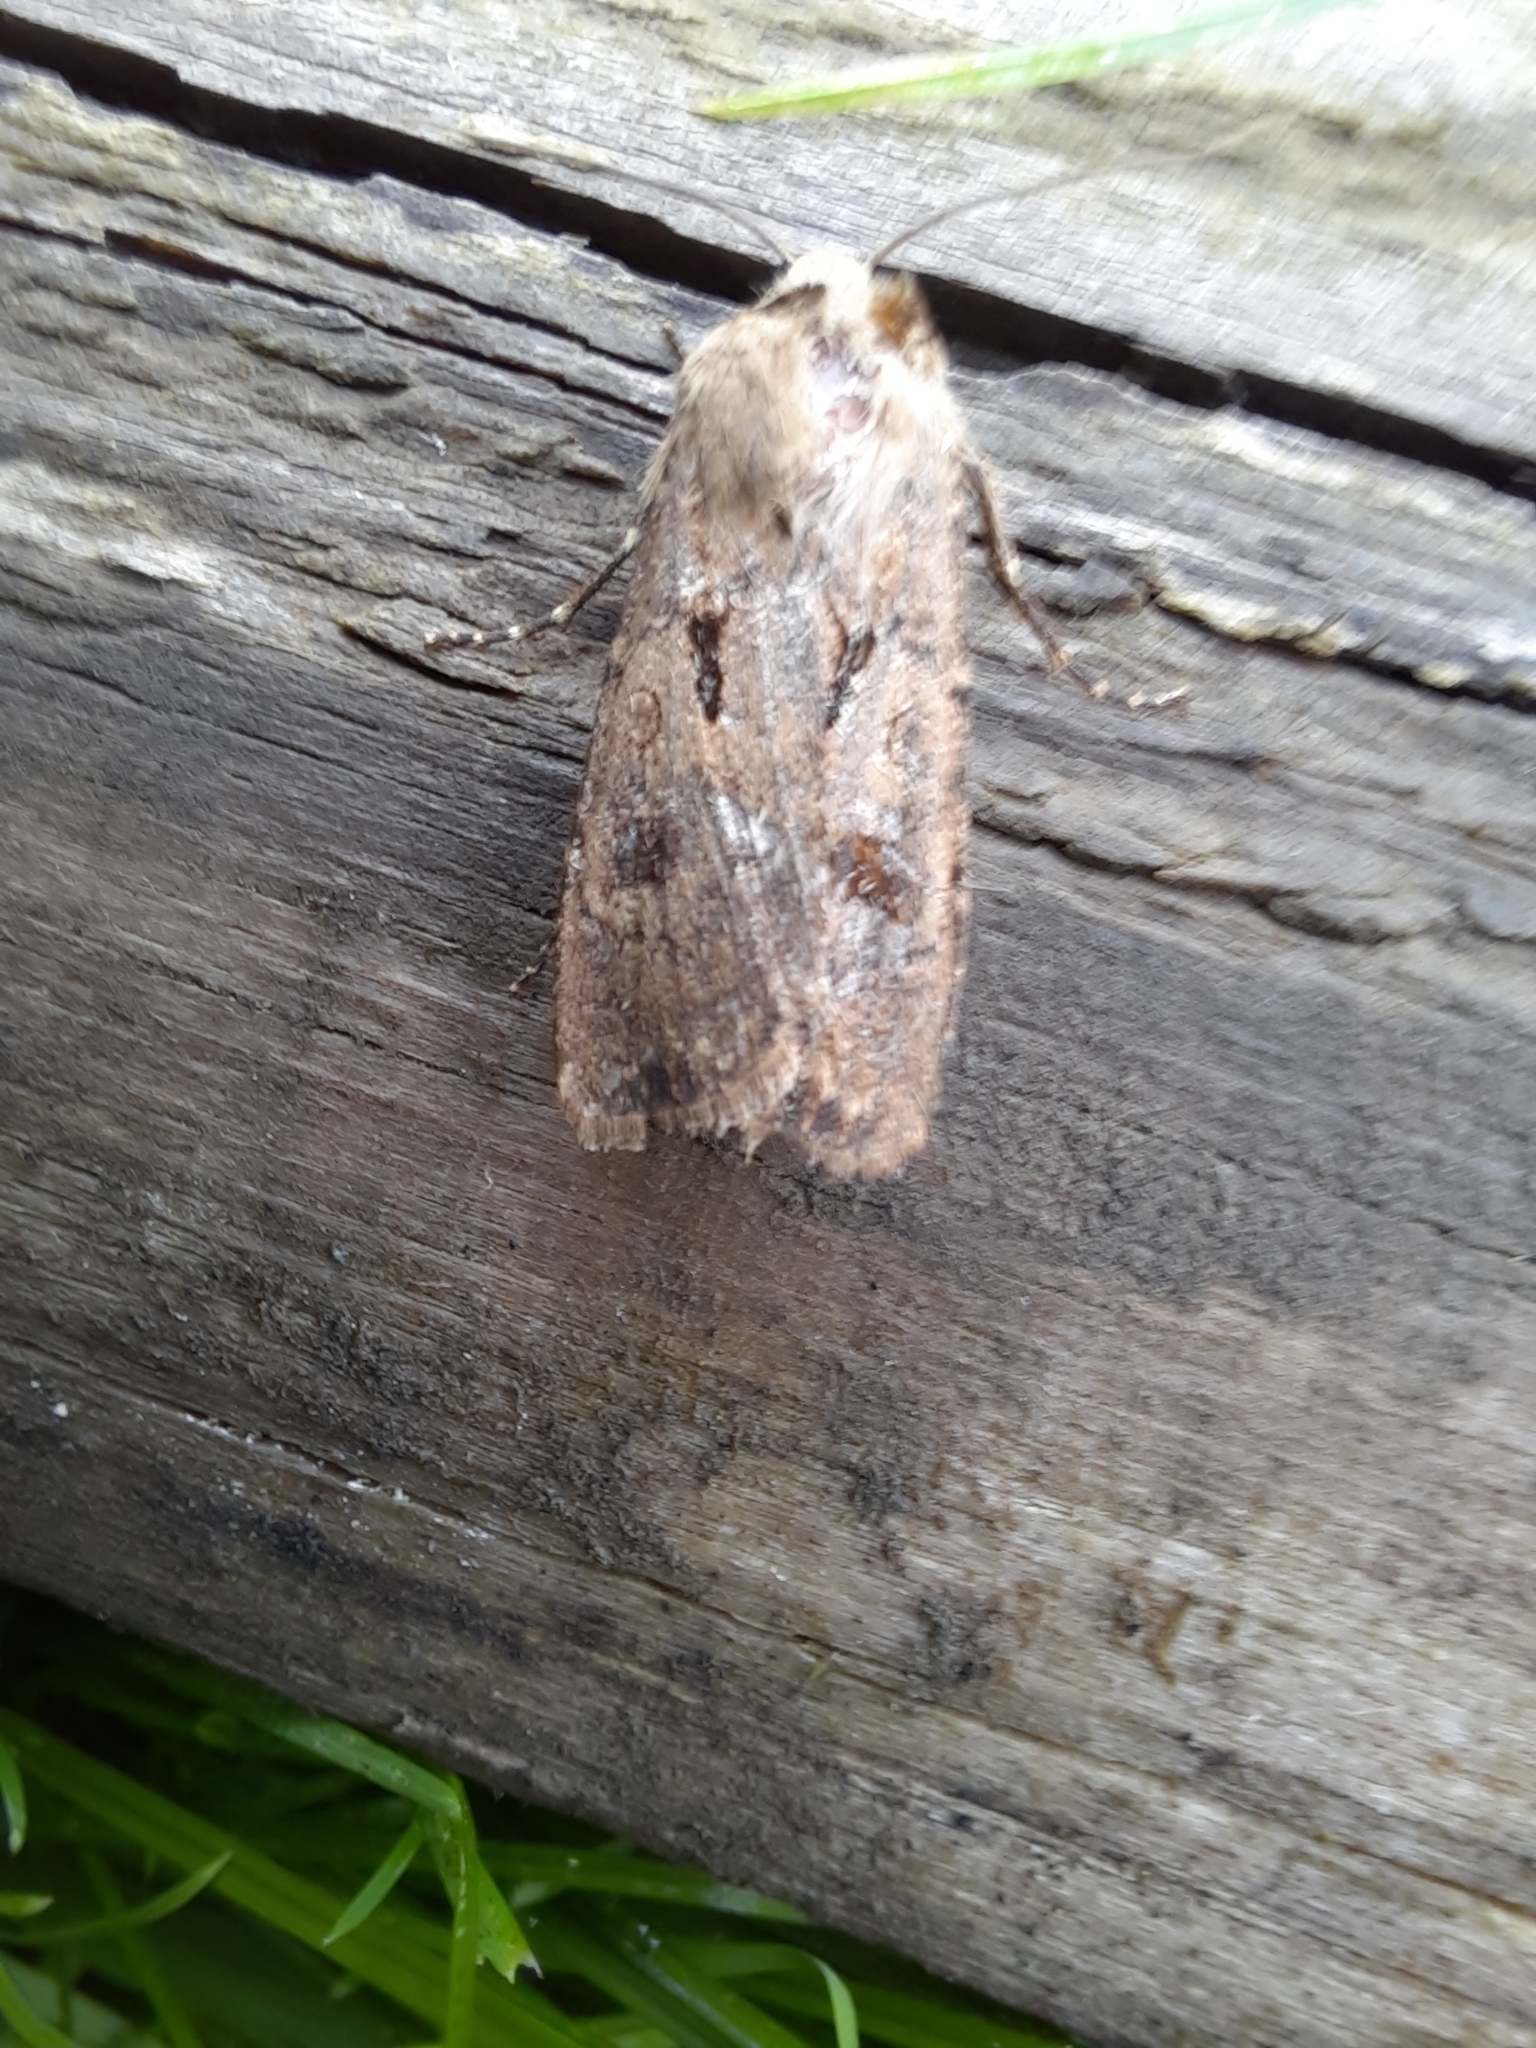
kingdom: Animalia
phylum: Arthropoda
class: Insecta
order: Lepidoptera
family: Noctuidae
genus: Agrotis
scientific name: Agrotis exclamationis
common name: Heart and dart
